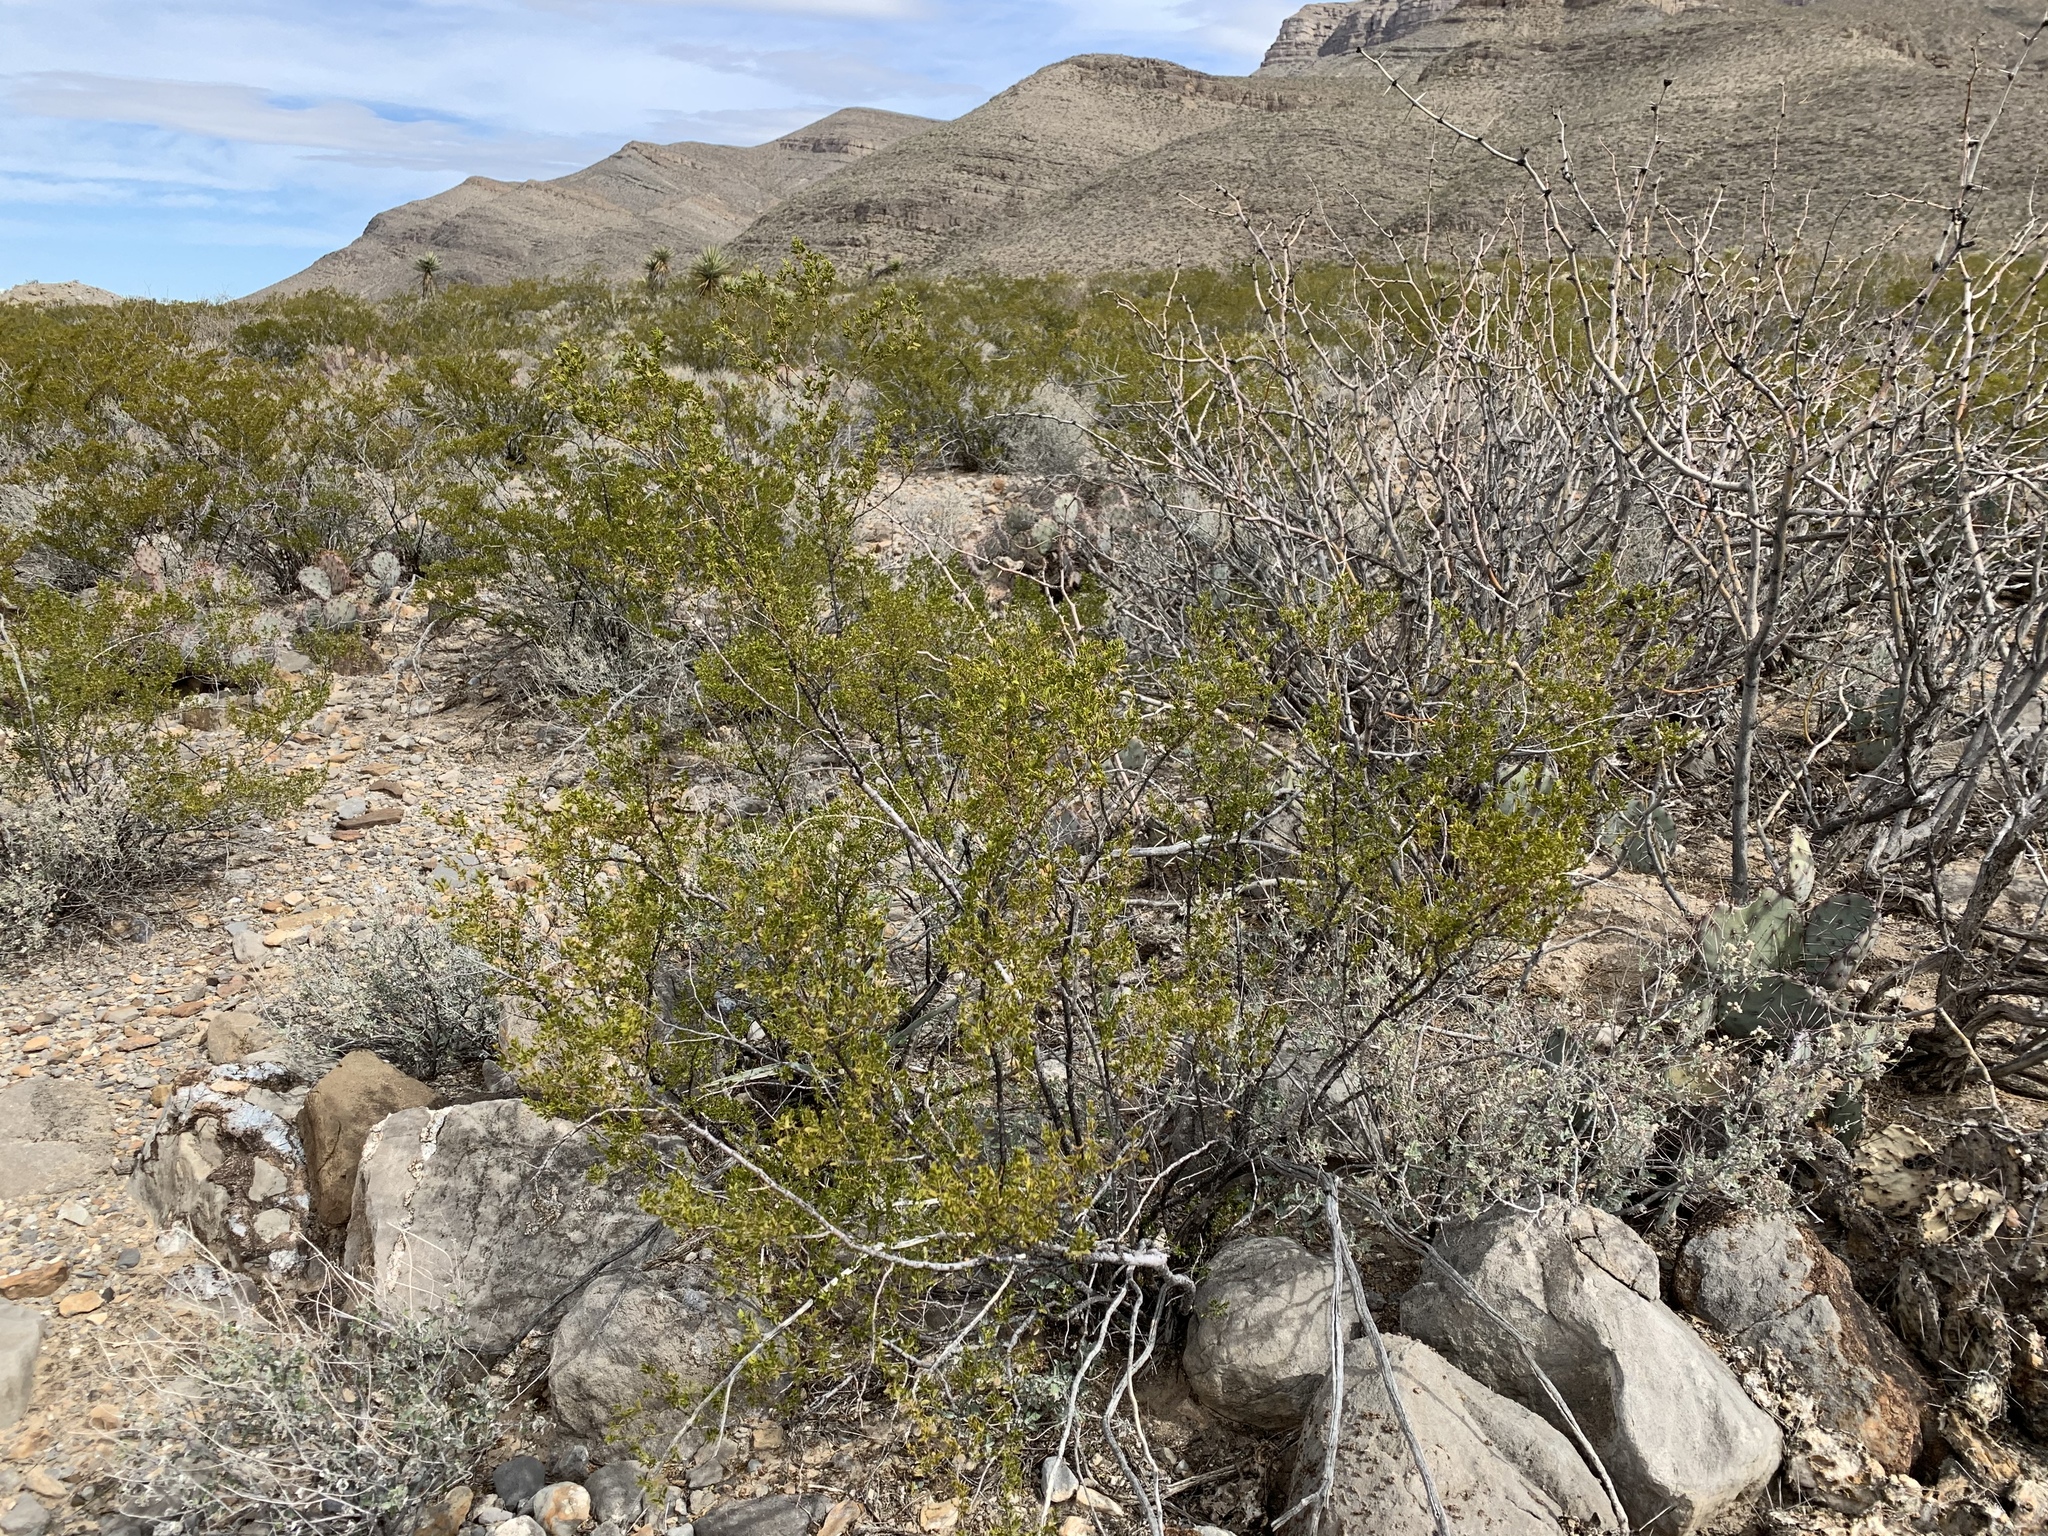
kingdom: Plantae
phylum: Tracheophyta
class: Magnoliopsida
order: Zygophyllales
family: Zygophyllaceae
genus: Larrea
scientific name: Larrea tridentata
